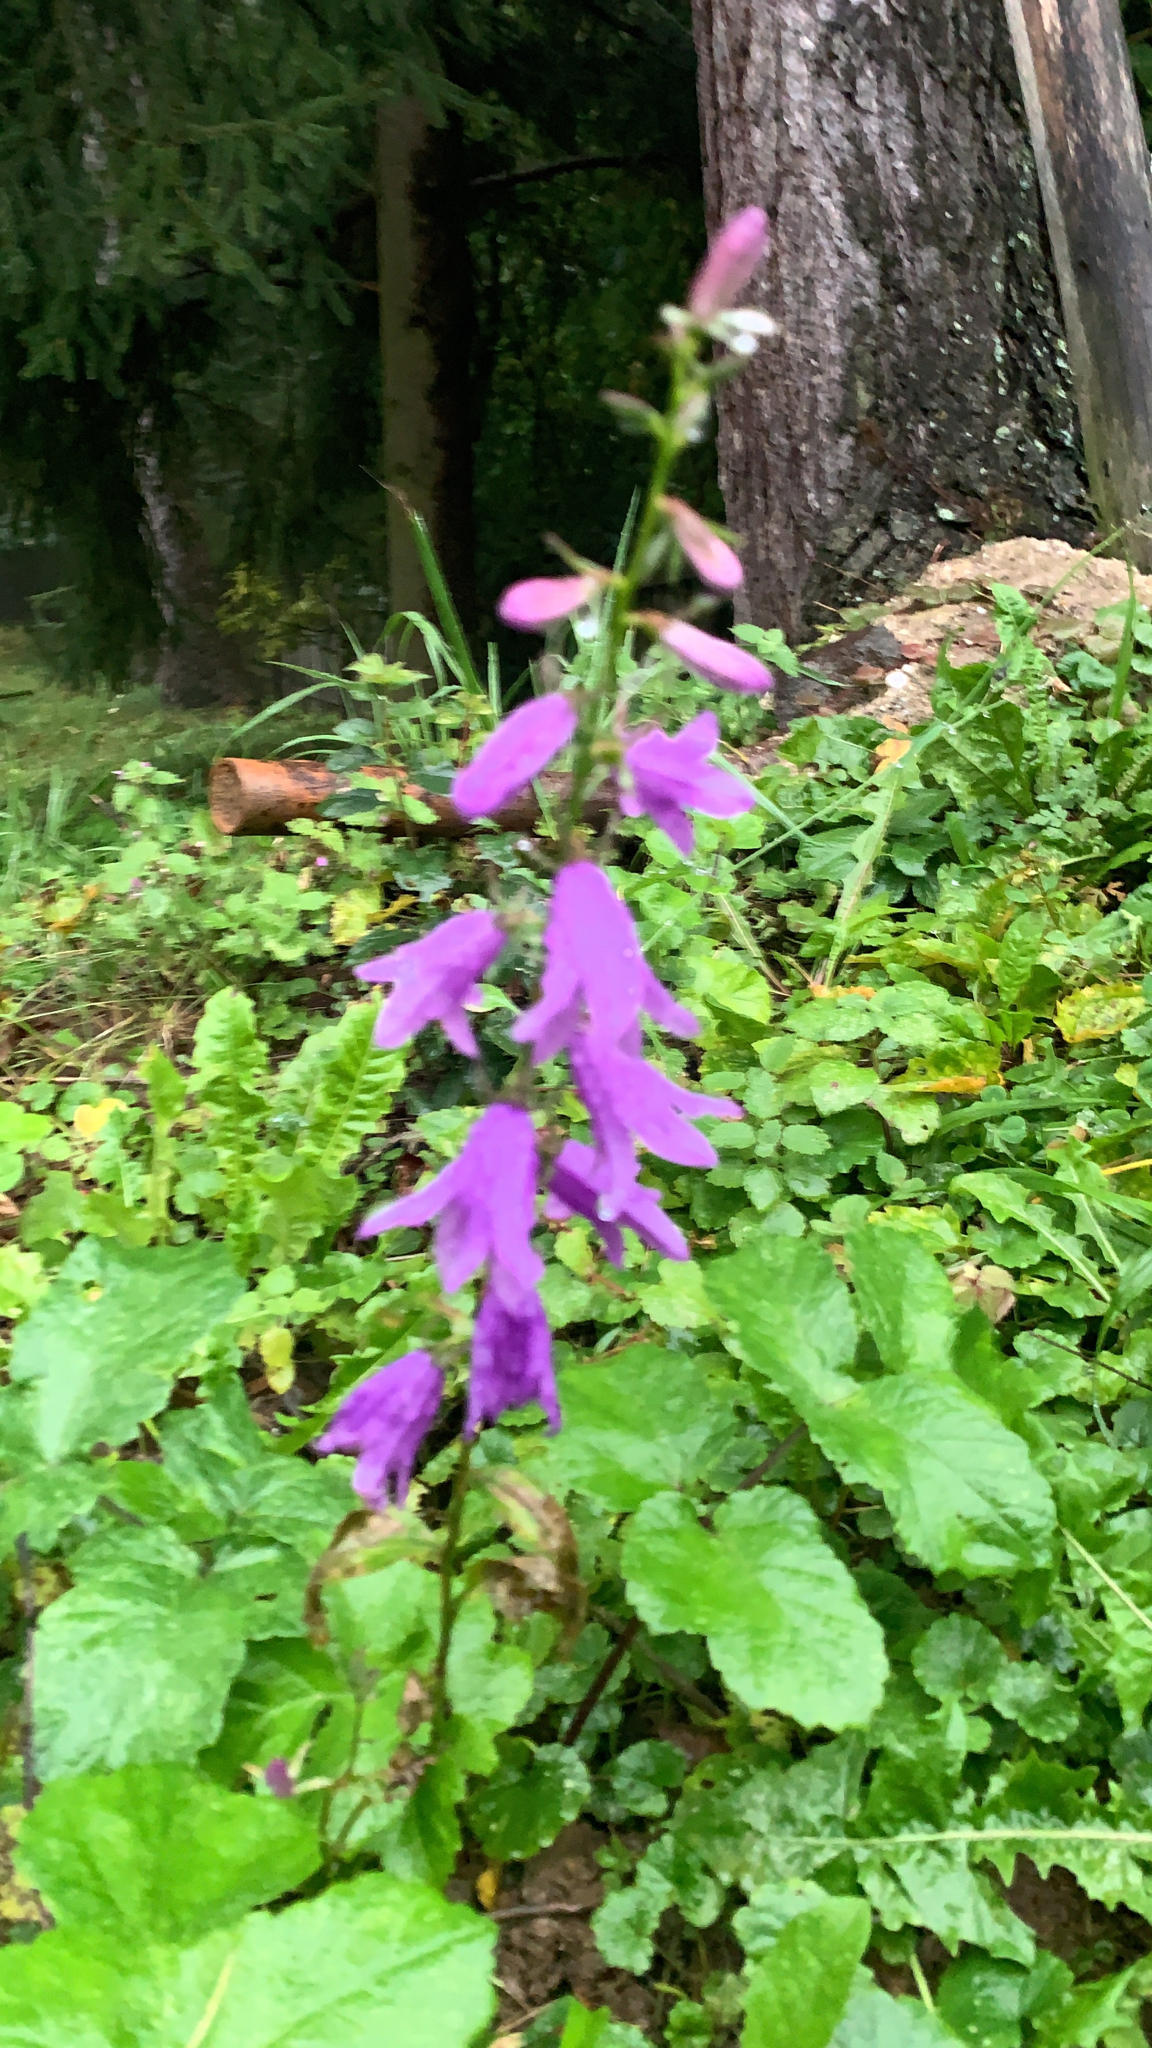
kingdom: Plantae
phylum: Tracheophyta
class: Magnoliopsida
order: Asterales
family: Campanulaceae
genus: Campanula
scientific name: Campanula rapunculoides
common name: Creeping bellflower
